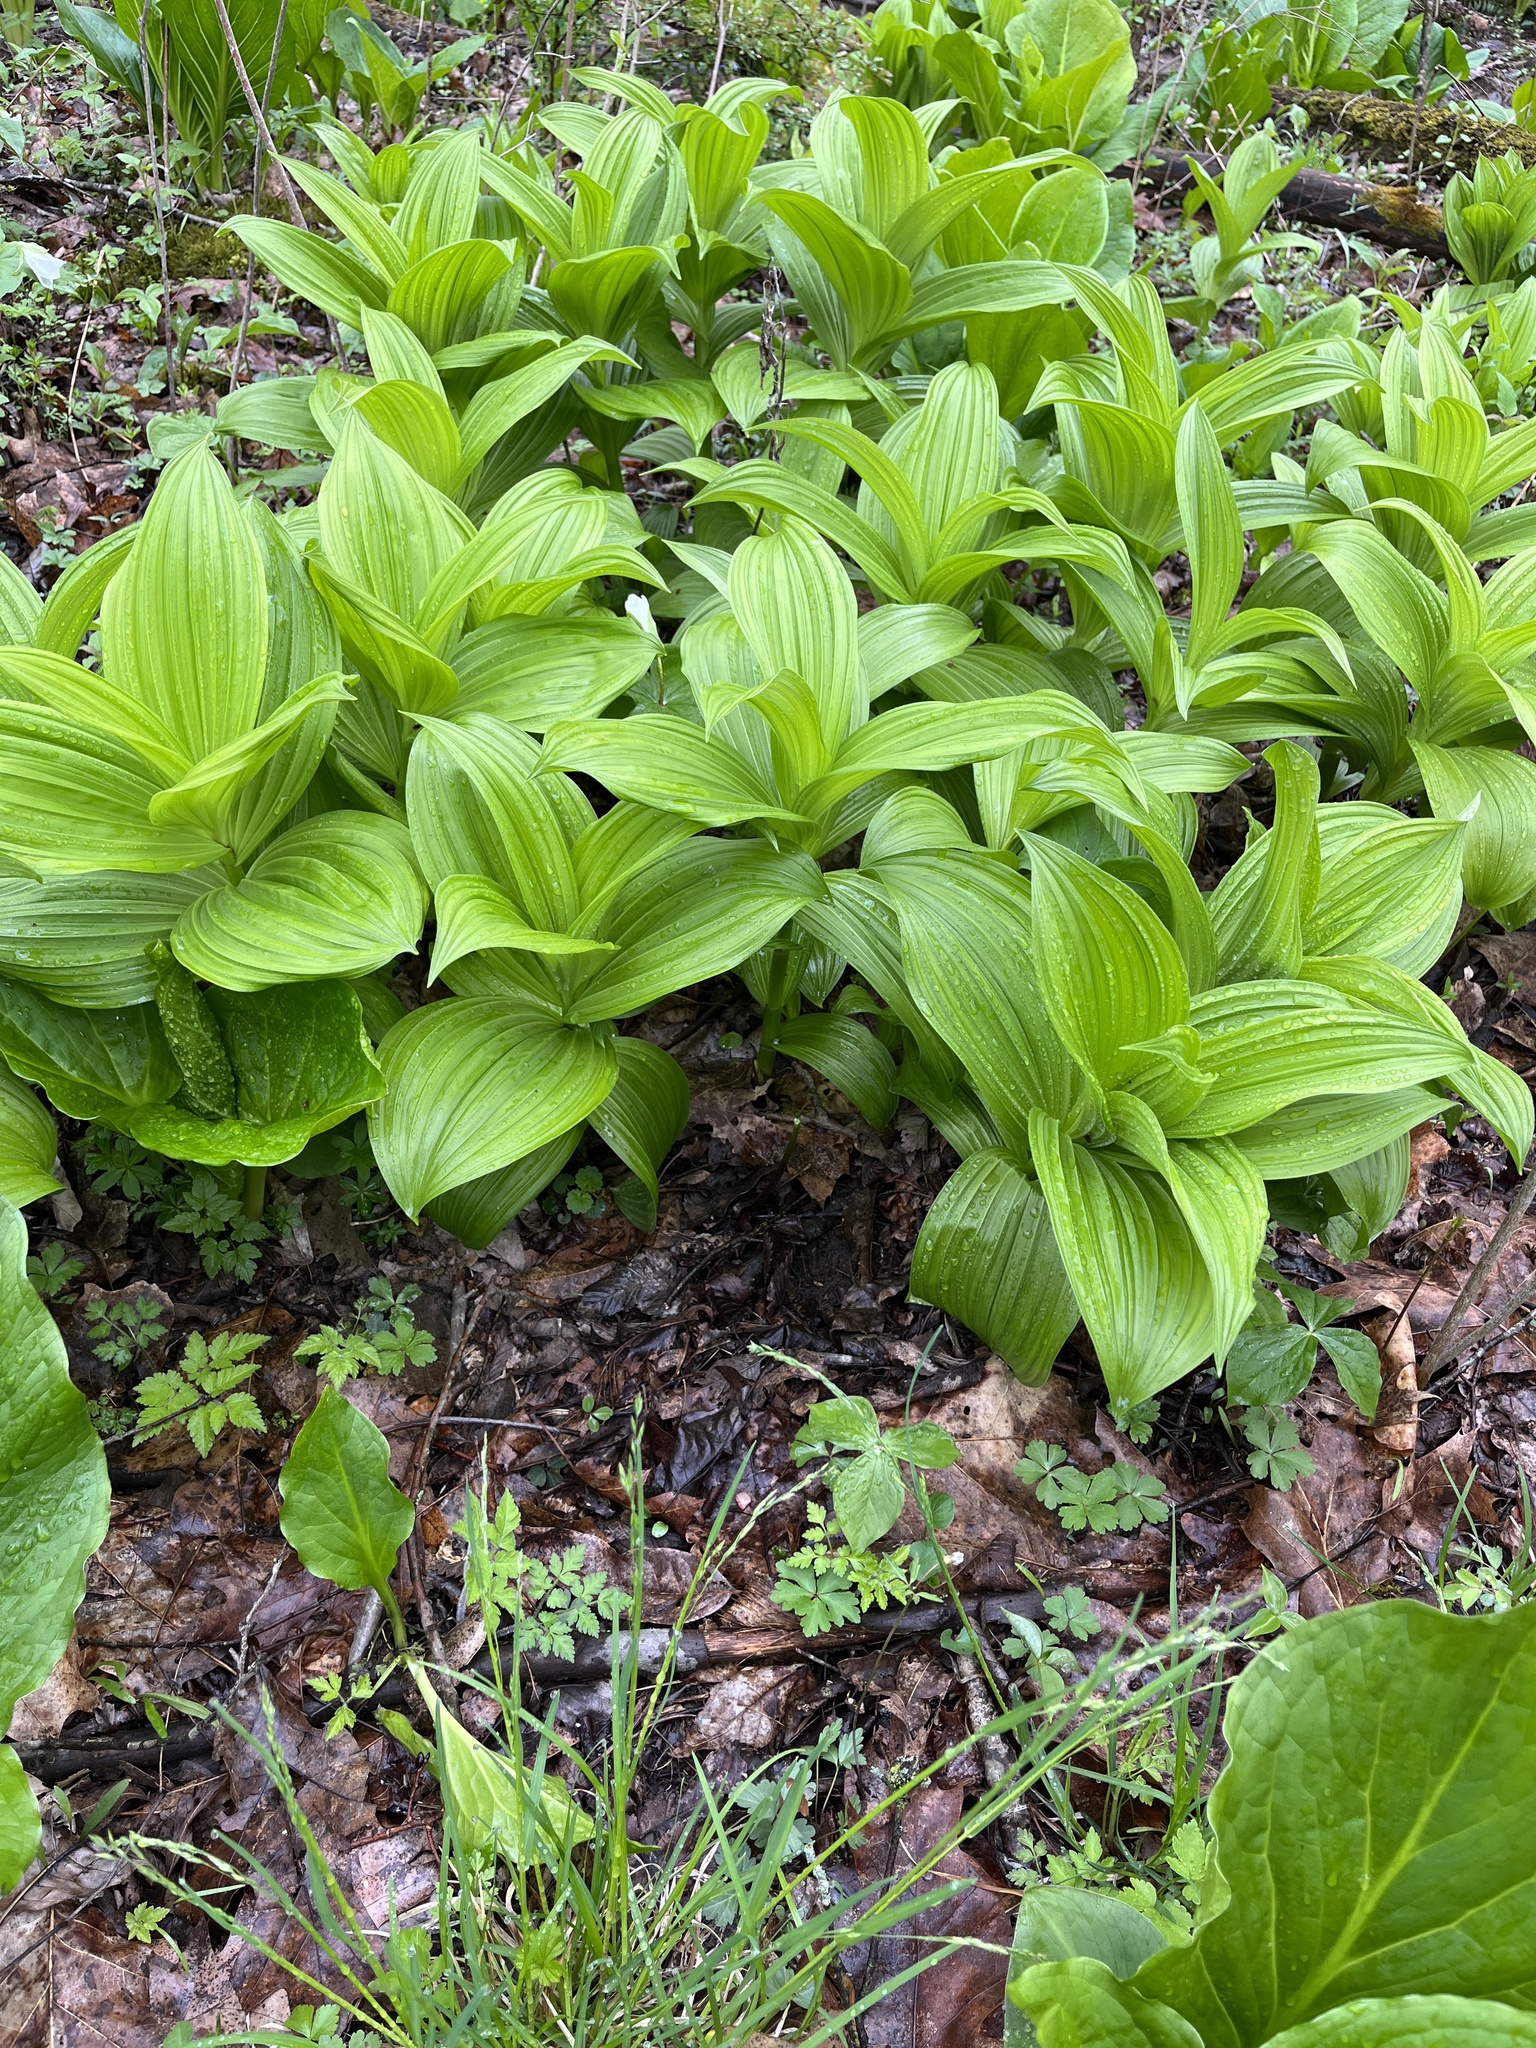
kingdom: Plantae
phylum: Tracheophyta
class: Liliopsida
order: Liliales
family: Melanthiaceae
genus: Veratrum
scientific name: Veratrum viride
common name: American false hellebore
